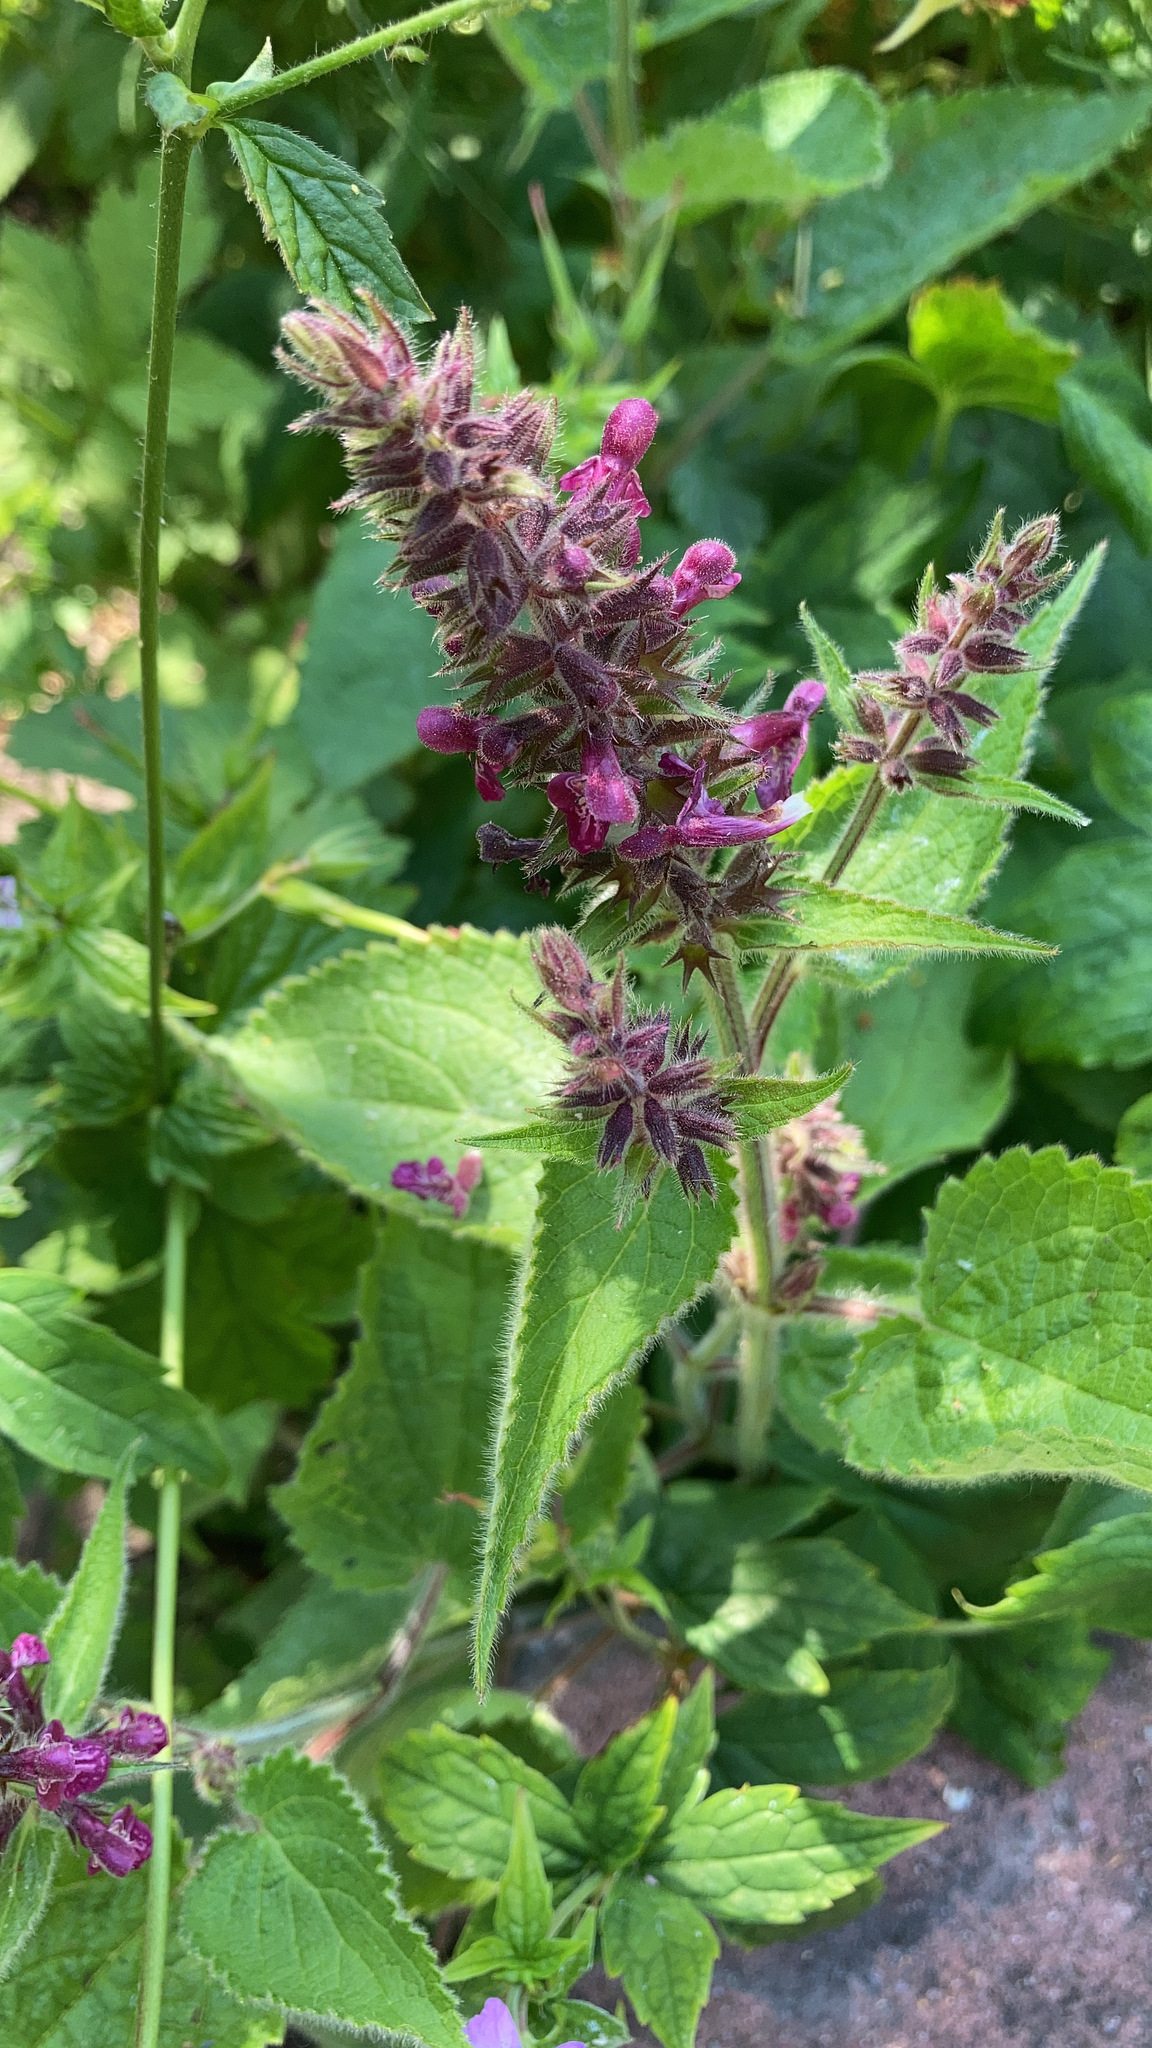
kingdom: Plantae
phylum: Tracheophyta
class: Magnoliopsida
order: Lamiales
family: Lamiaceae
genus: Stachys
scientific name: Stachys sylvatica
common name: Hedge woundwort
